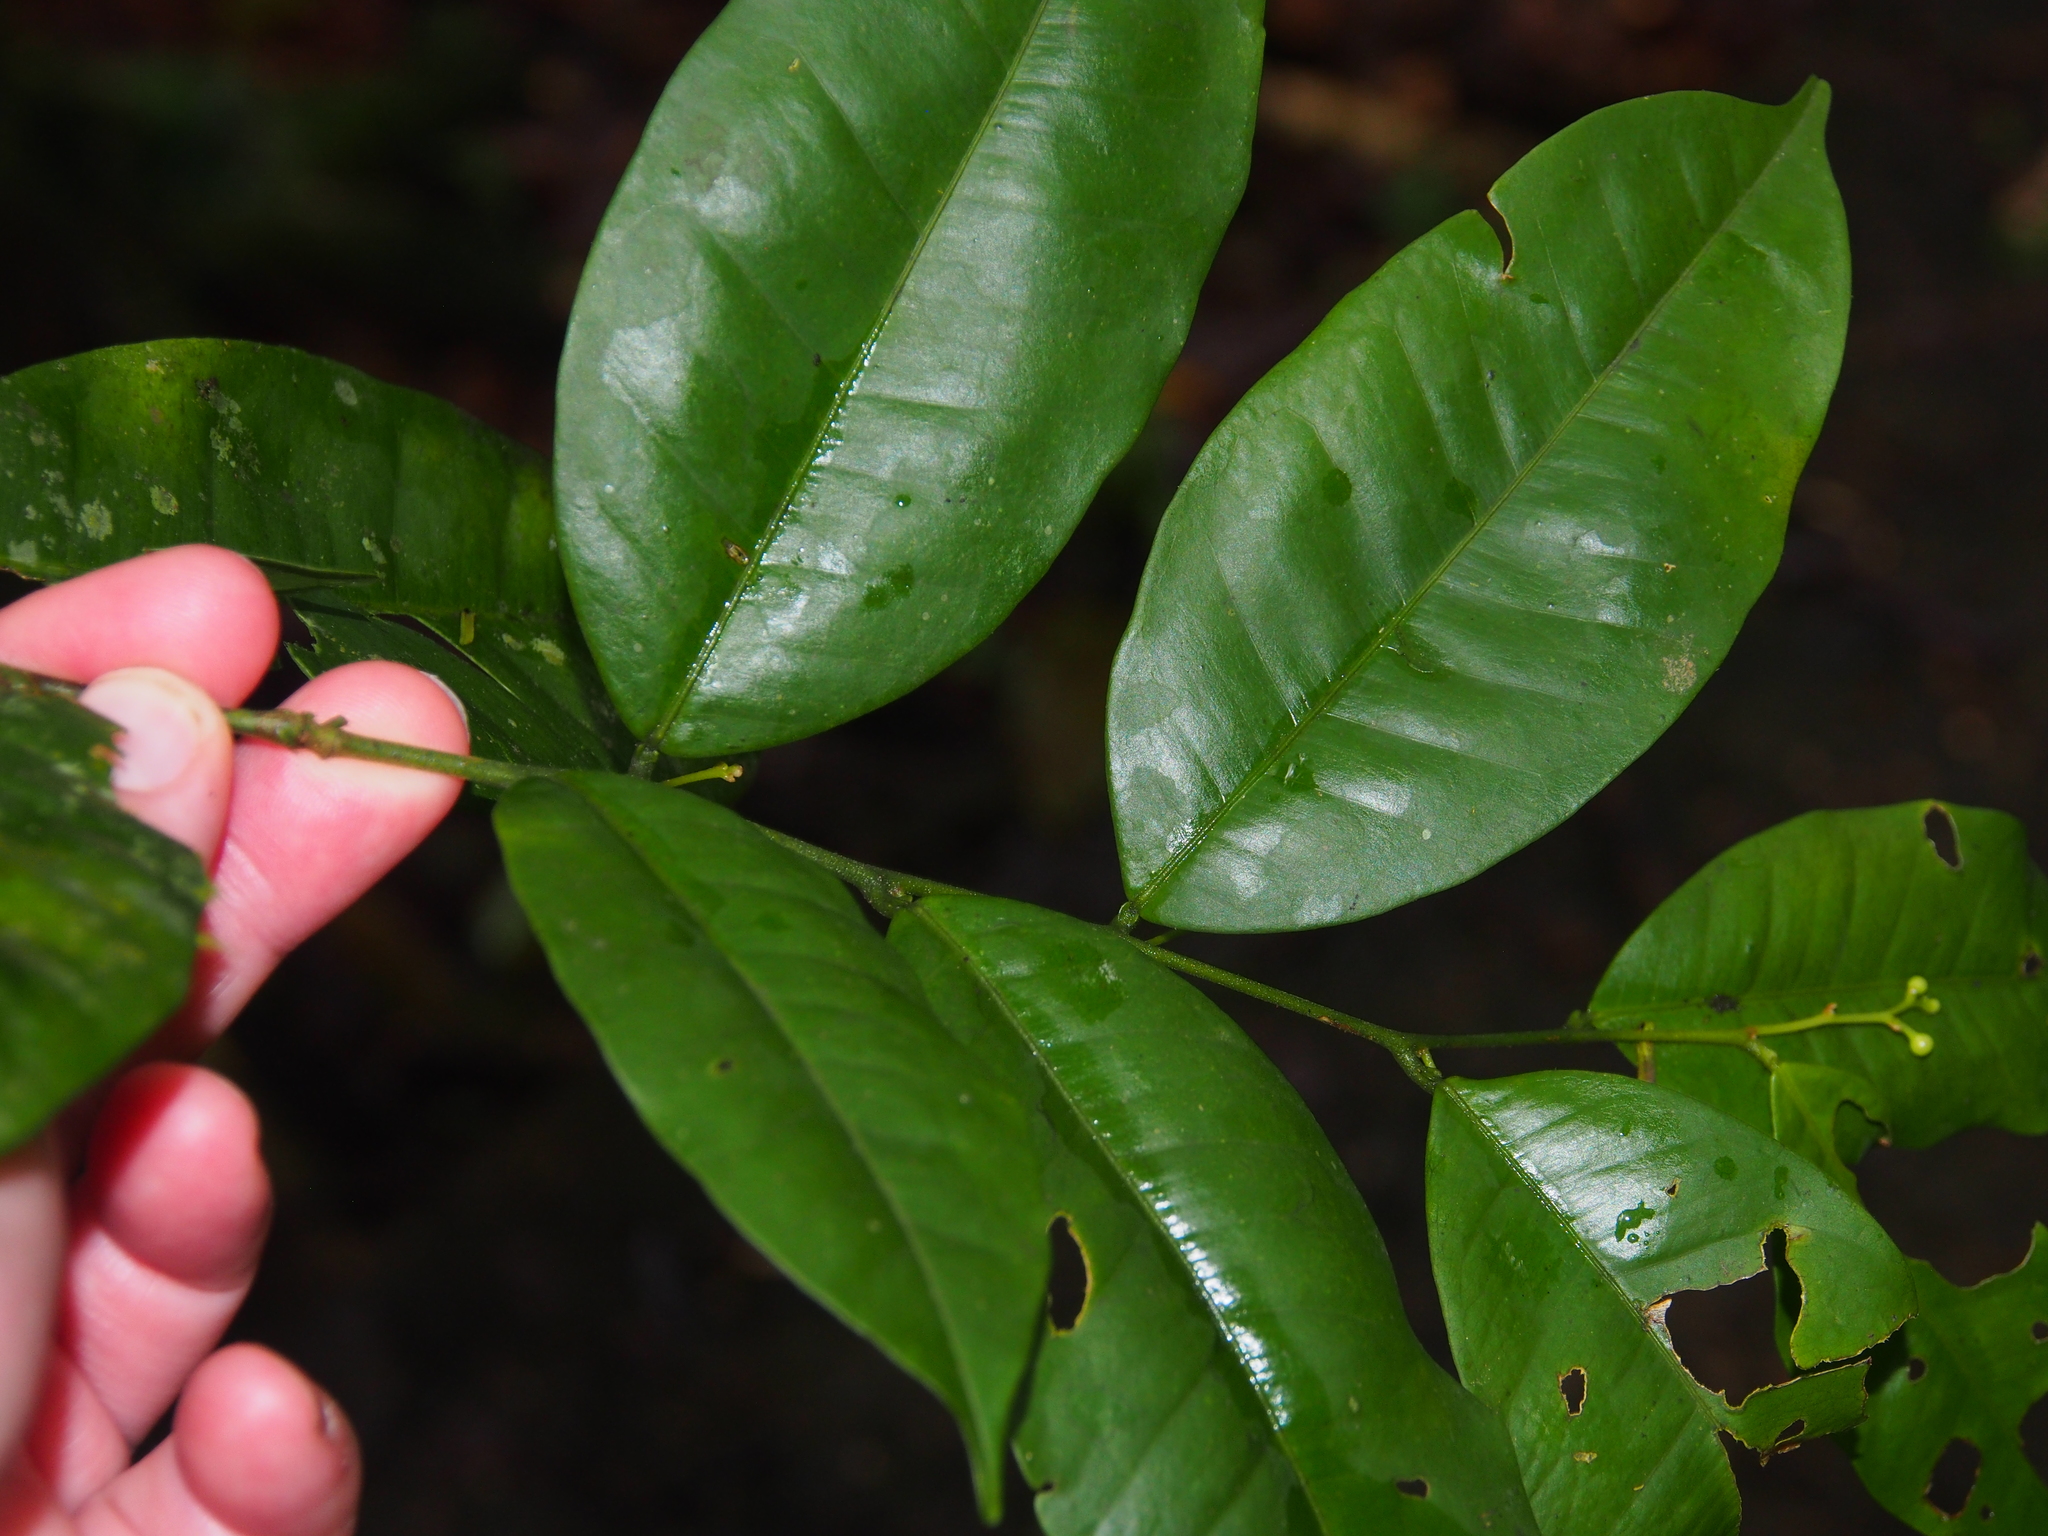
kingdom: Plantae
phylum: Tracheophyta
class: Magnoliopsida
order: Fabales
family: Fabaceae
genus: Swartzia
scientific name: Swartzia guatemalensis
